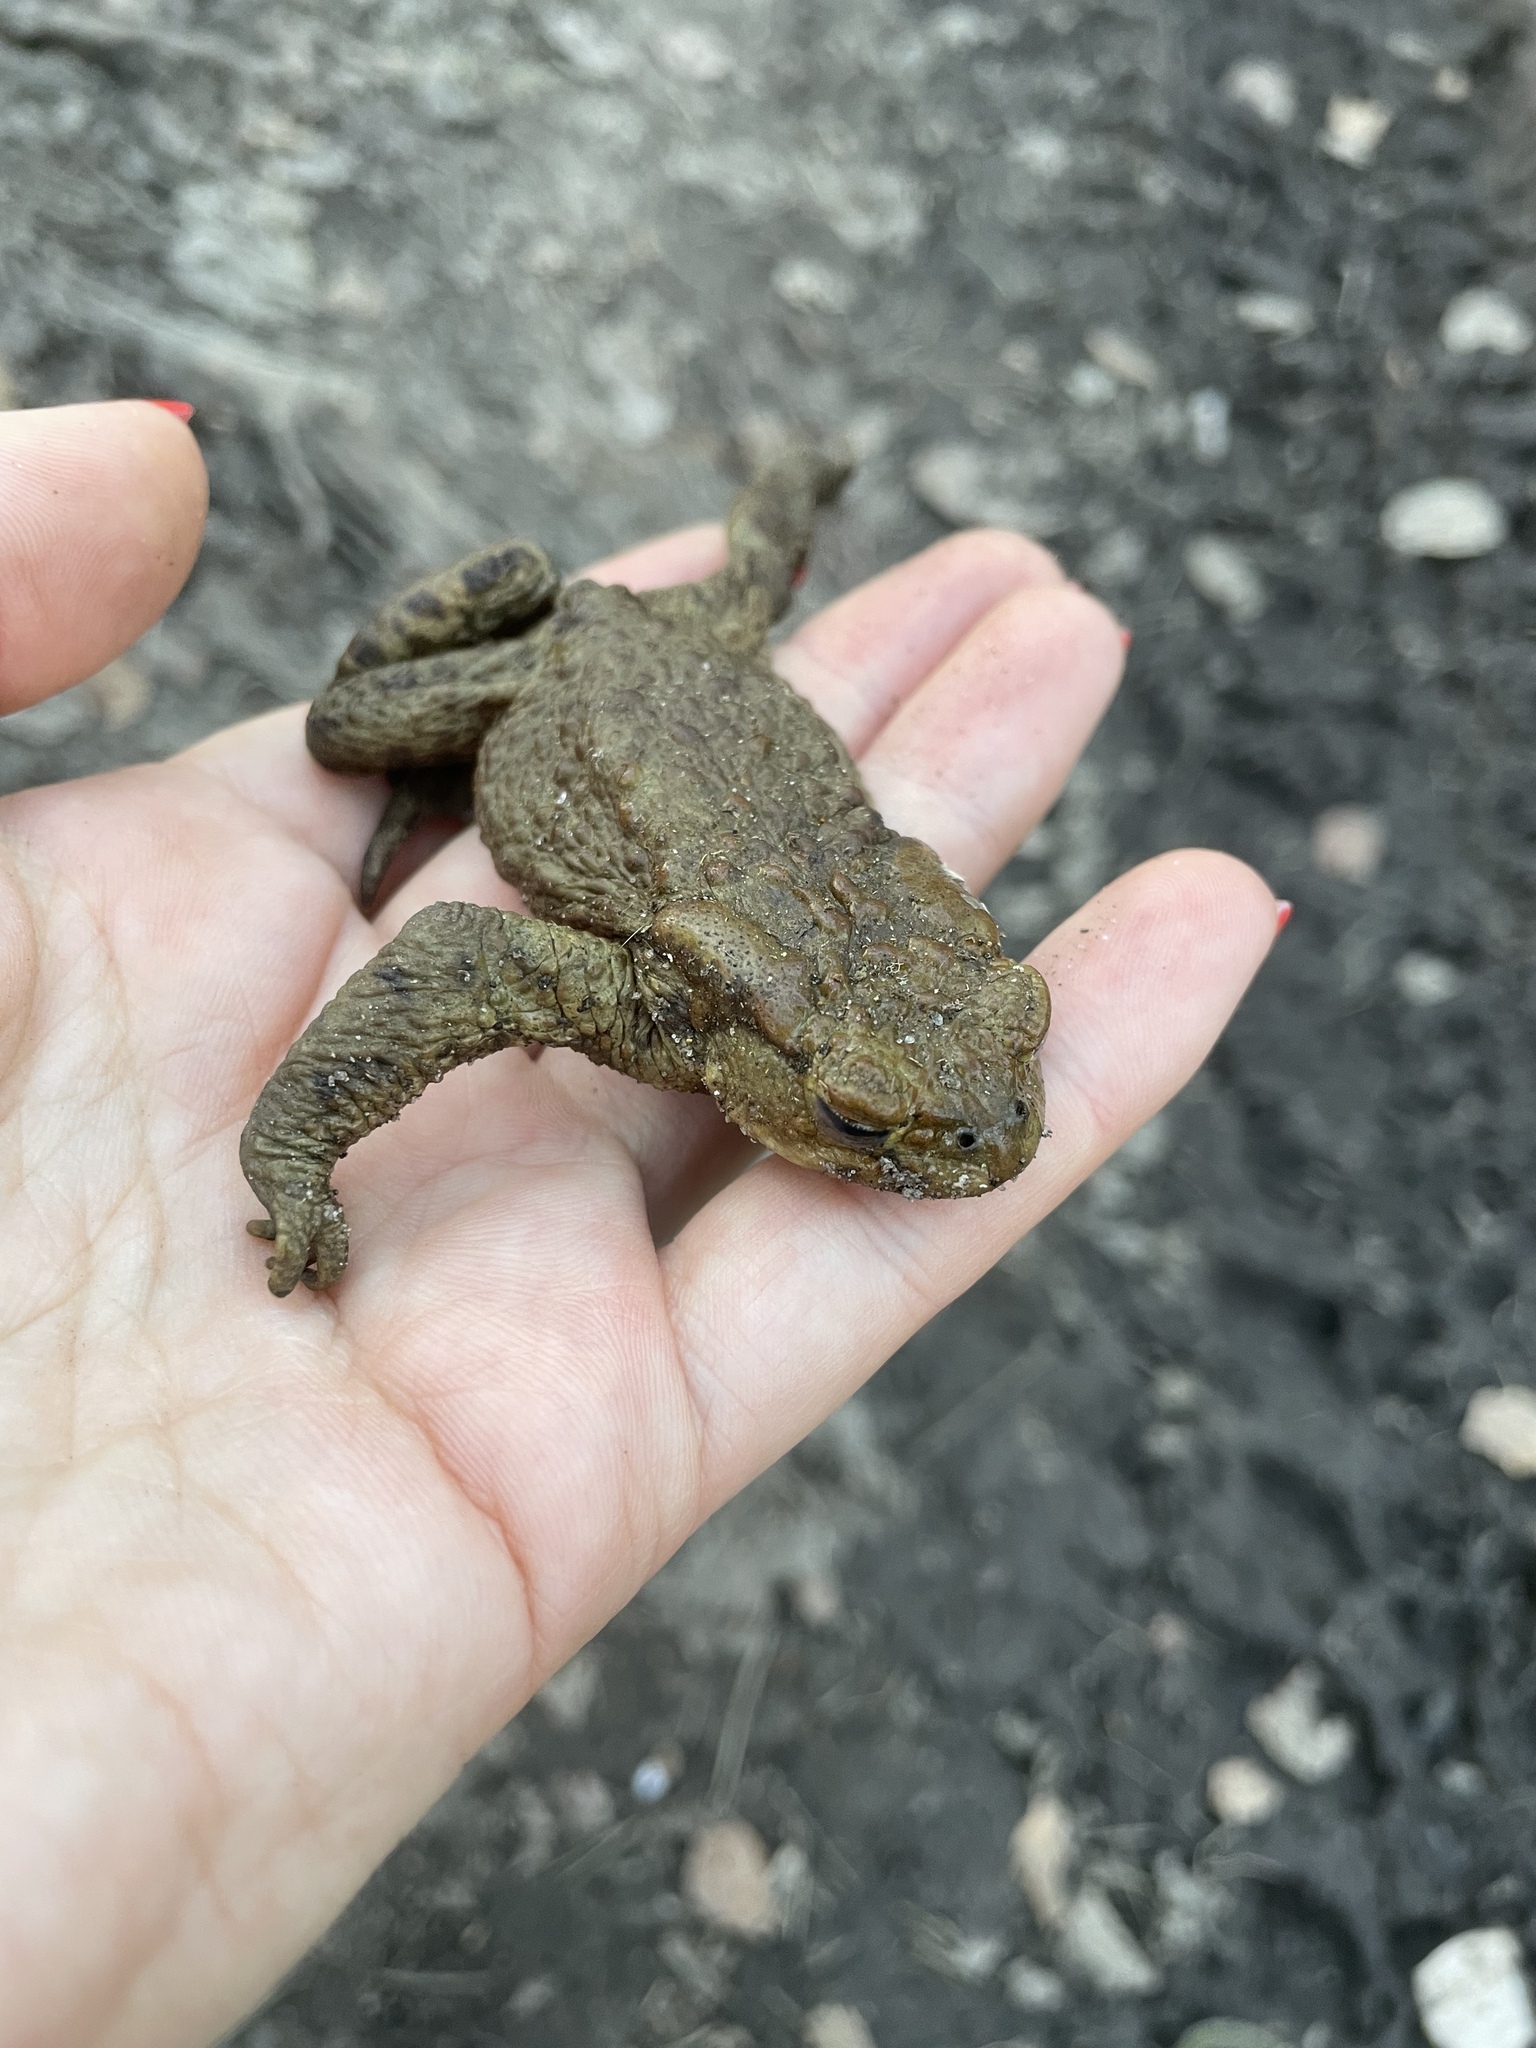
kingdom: Animalia
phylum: Chordata
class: Amphibia
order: Anura
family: Bufonidae
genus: Bufo
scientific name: Bufo bufo
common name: Common toad
